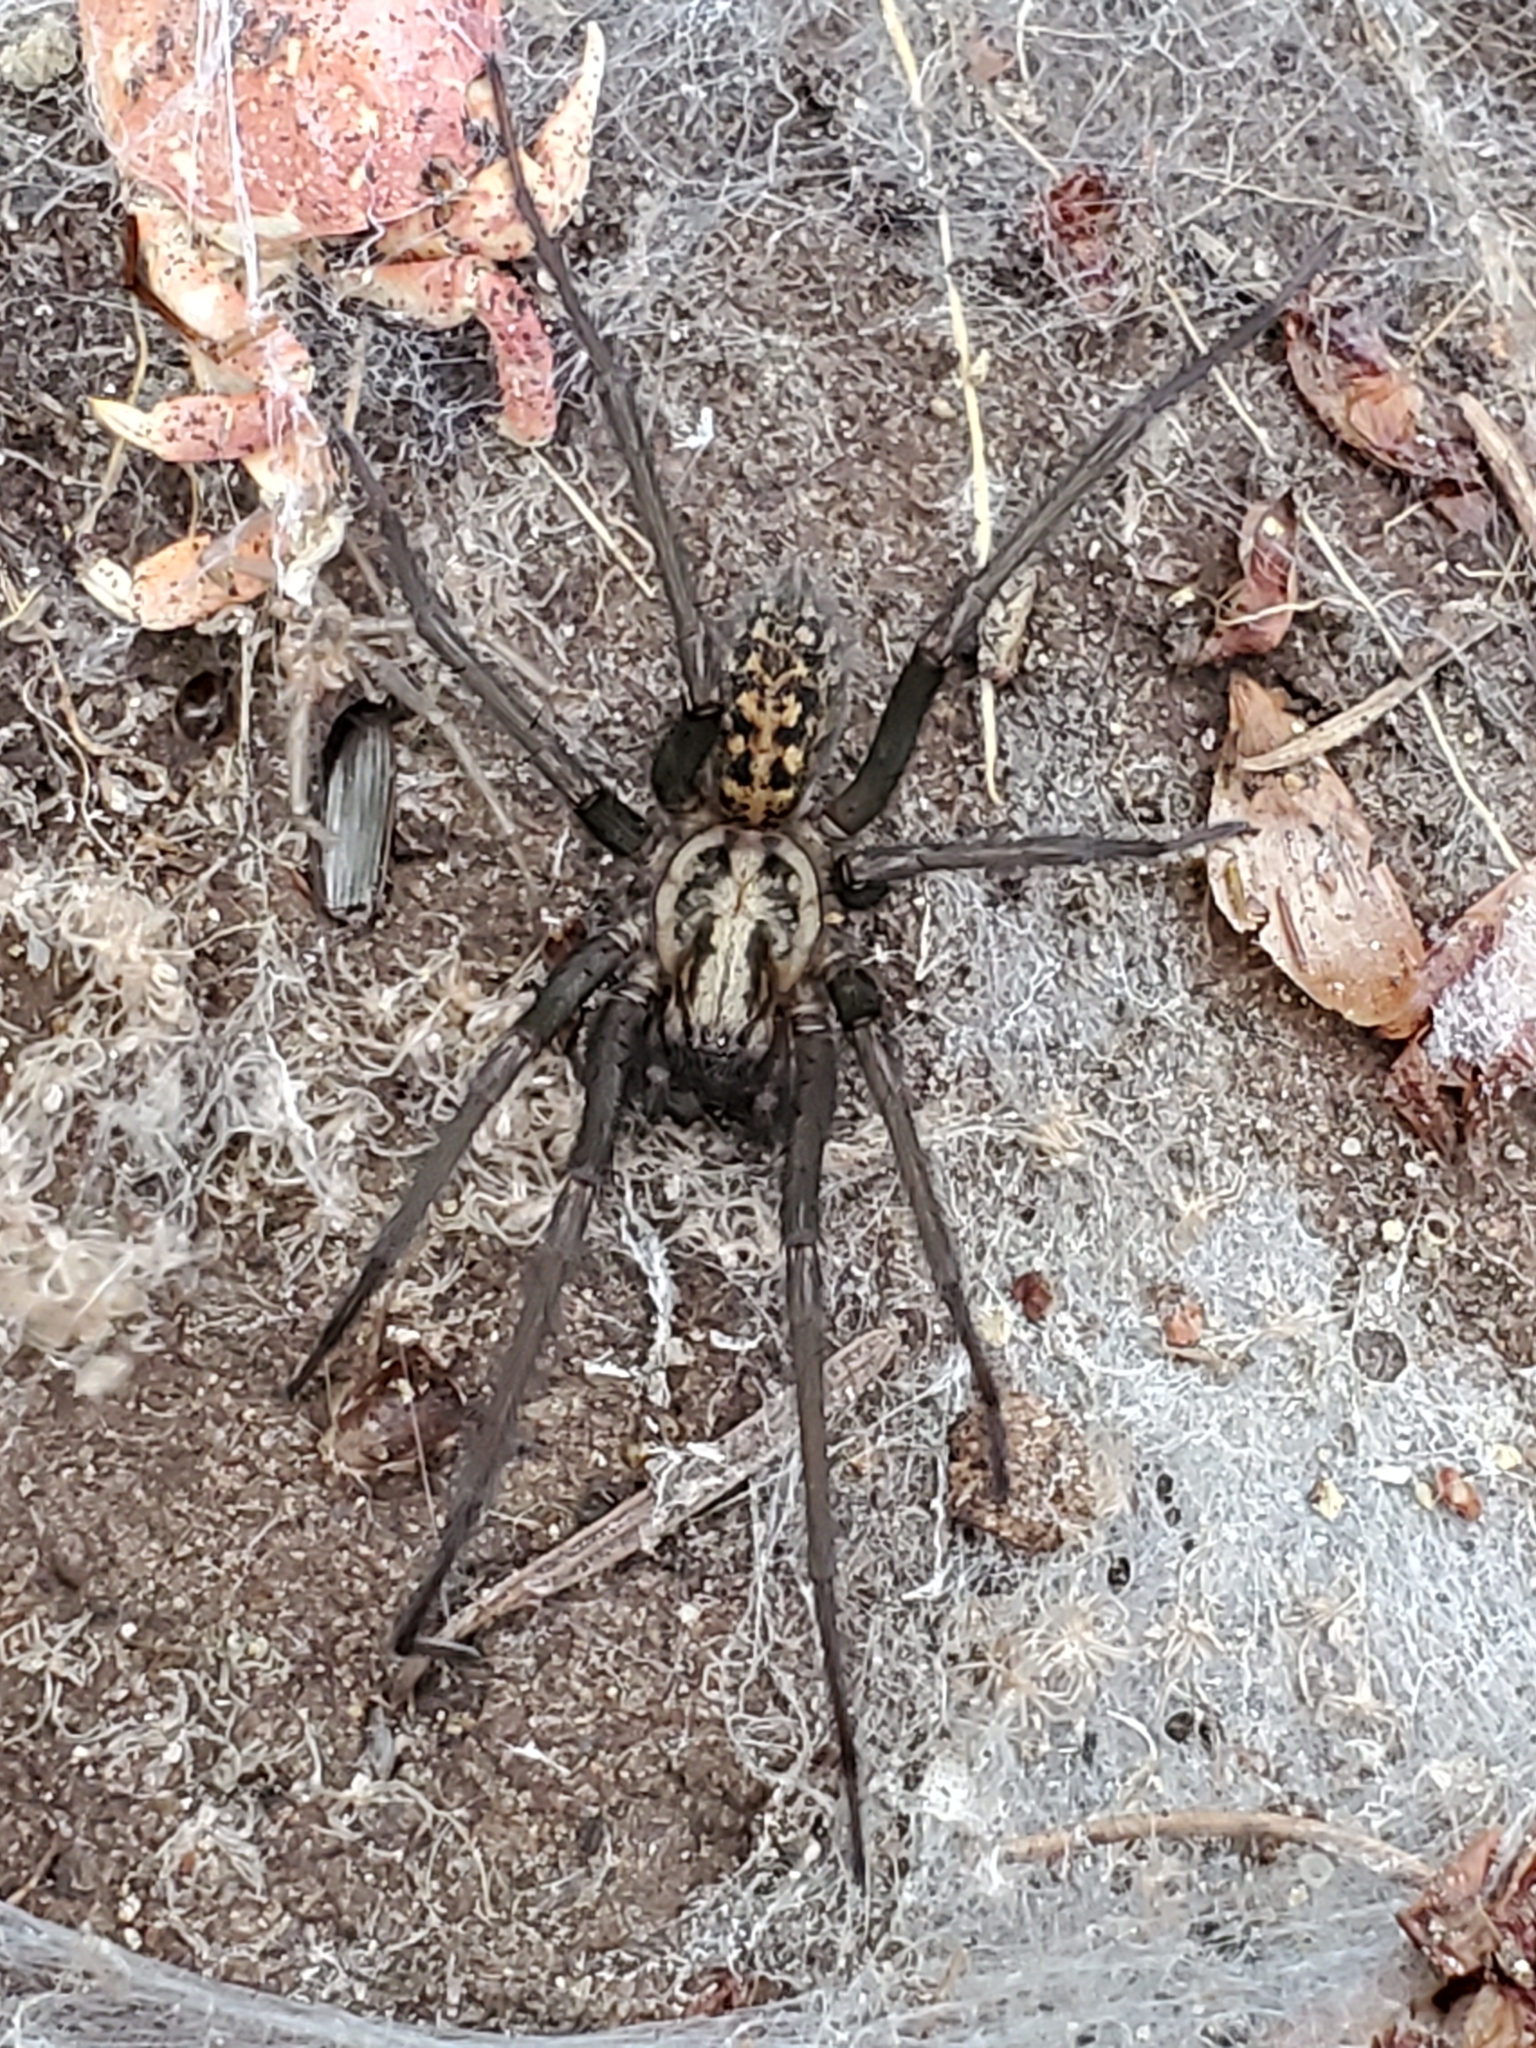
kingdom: Animalia
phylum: Arthropoda
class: Arachnida
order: Araneae
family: Agelenidae
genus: Eratigena
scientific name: Eratigena duellica
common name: Giant house spider
